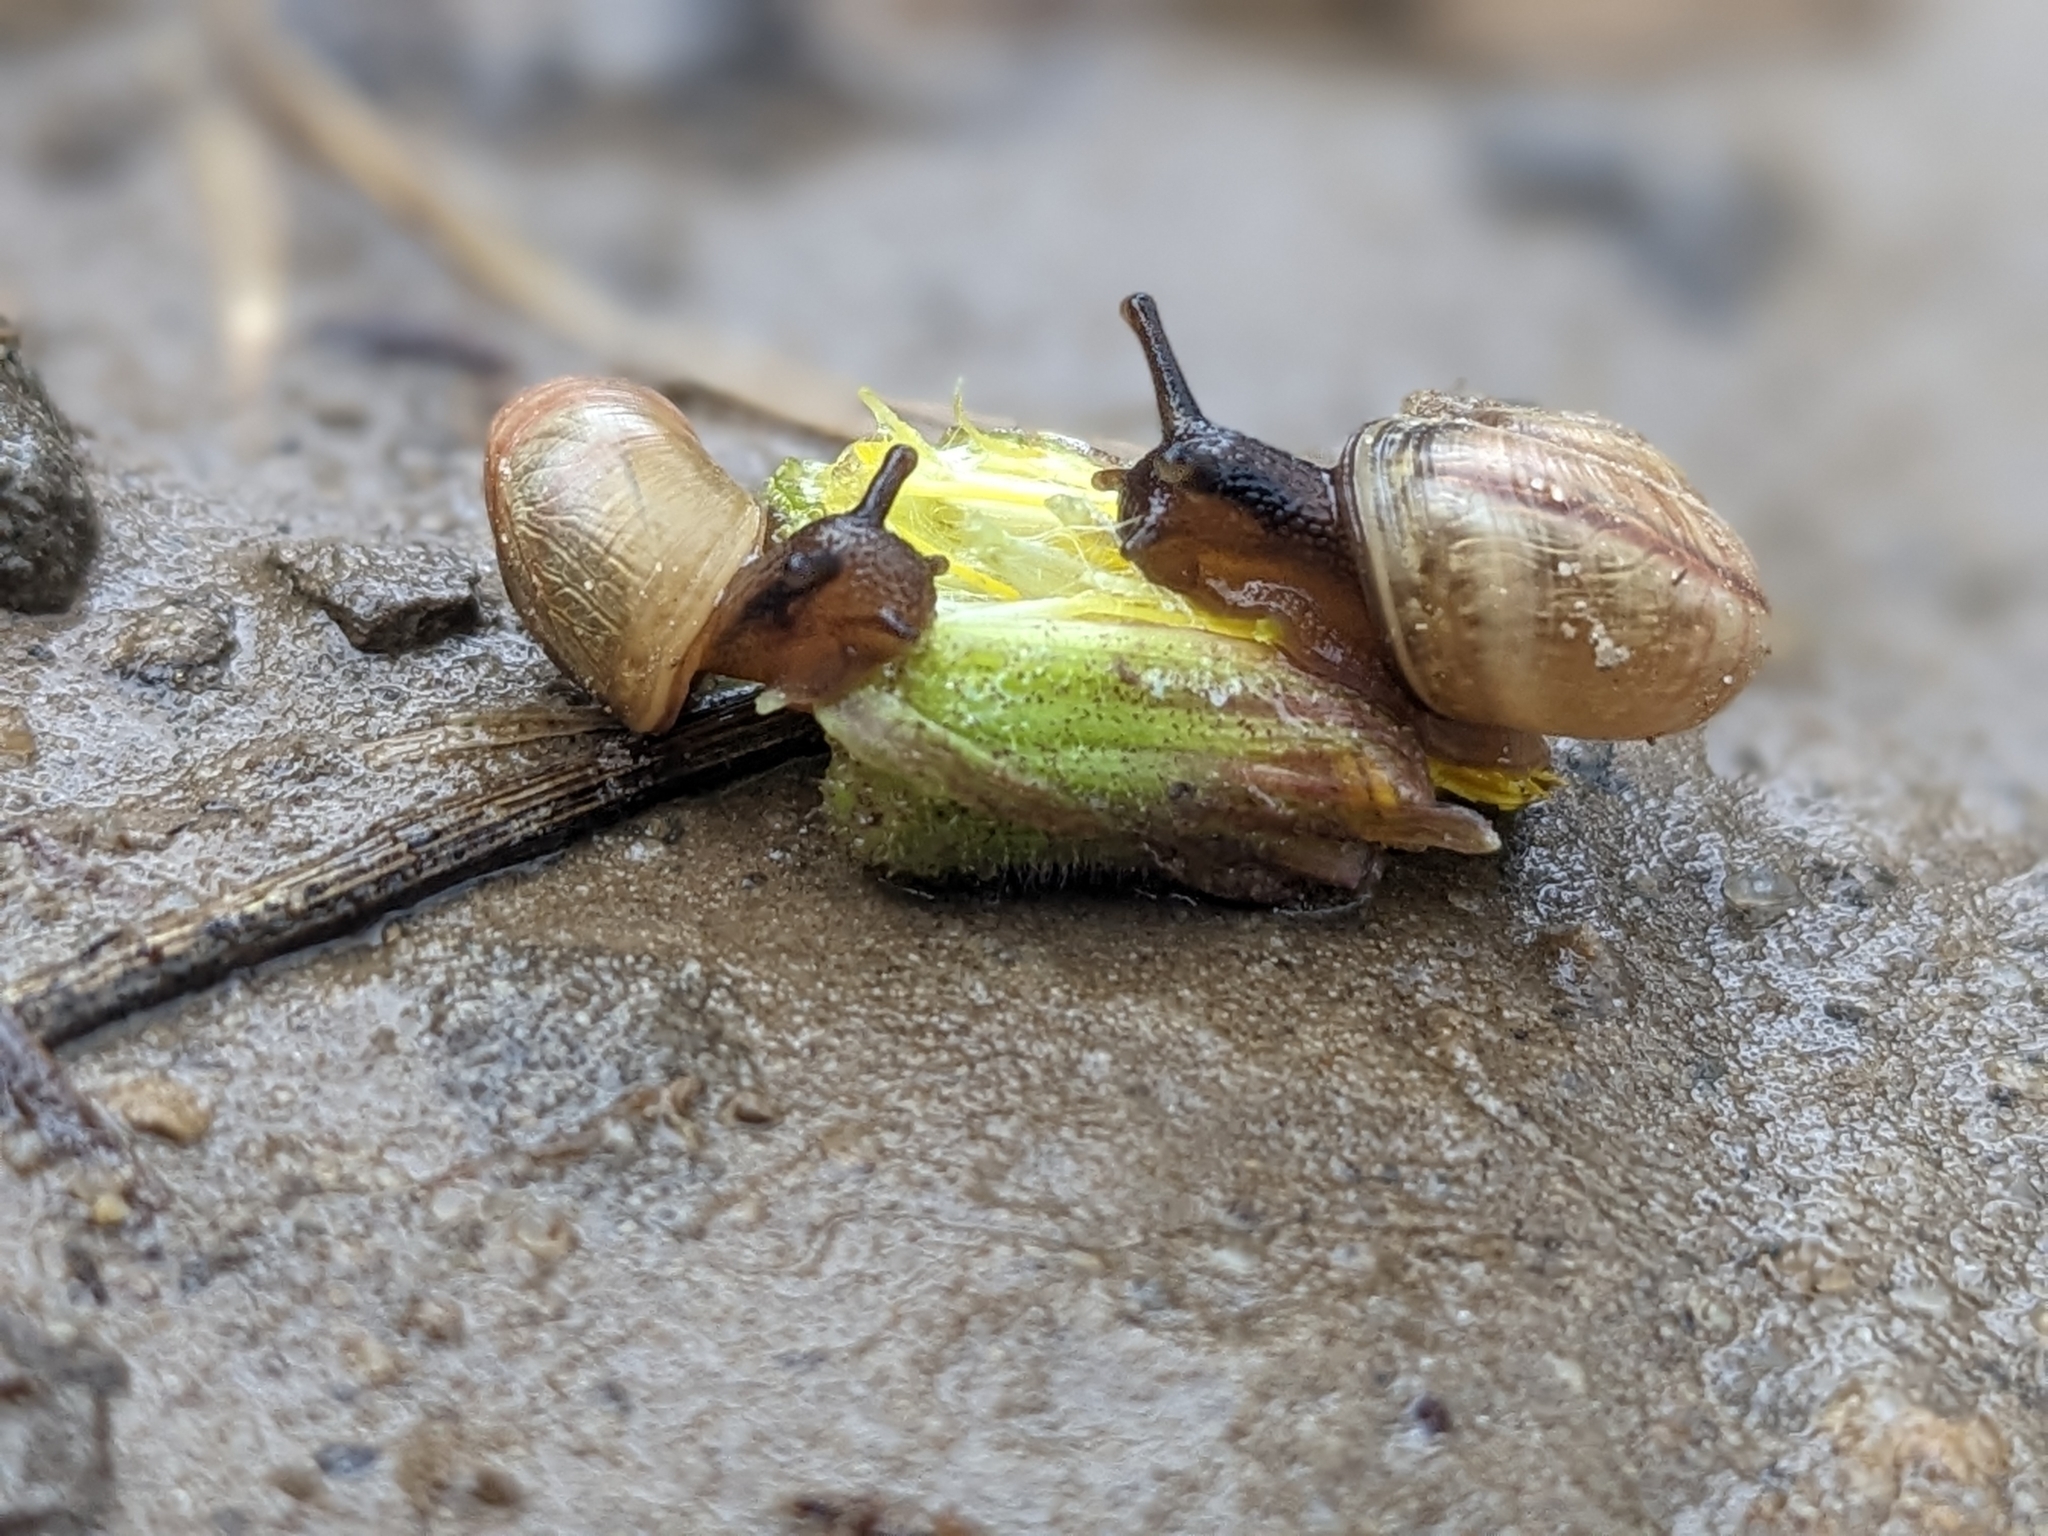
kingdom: Animalia
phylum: Mollusca
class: Gastropoda
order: Stylommatophora
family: Helicidae
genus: Arianta
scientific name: Arianta arbustorum
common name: Copse snail
